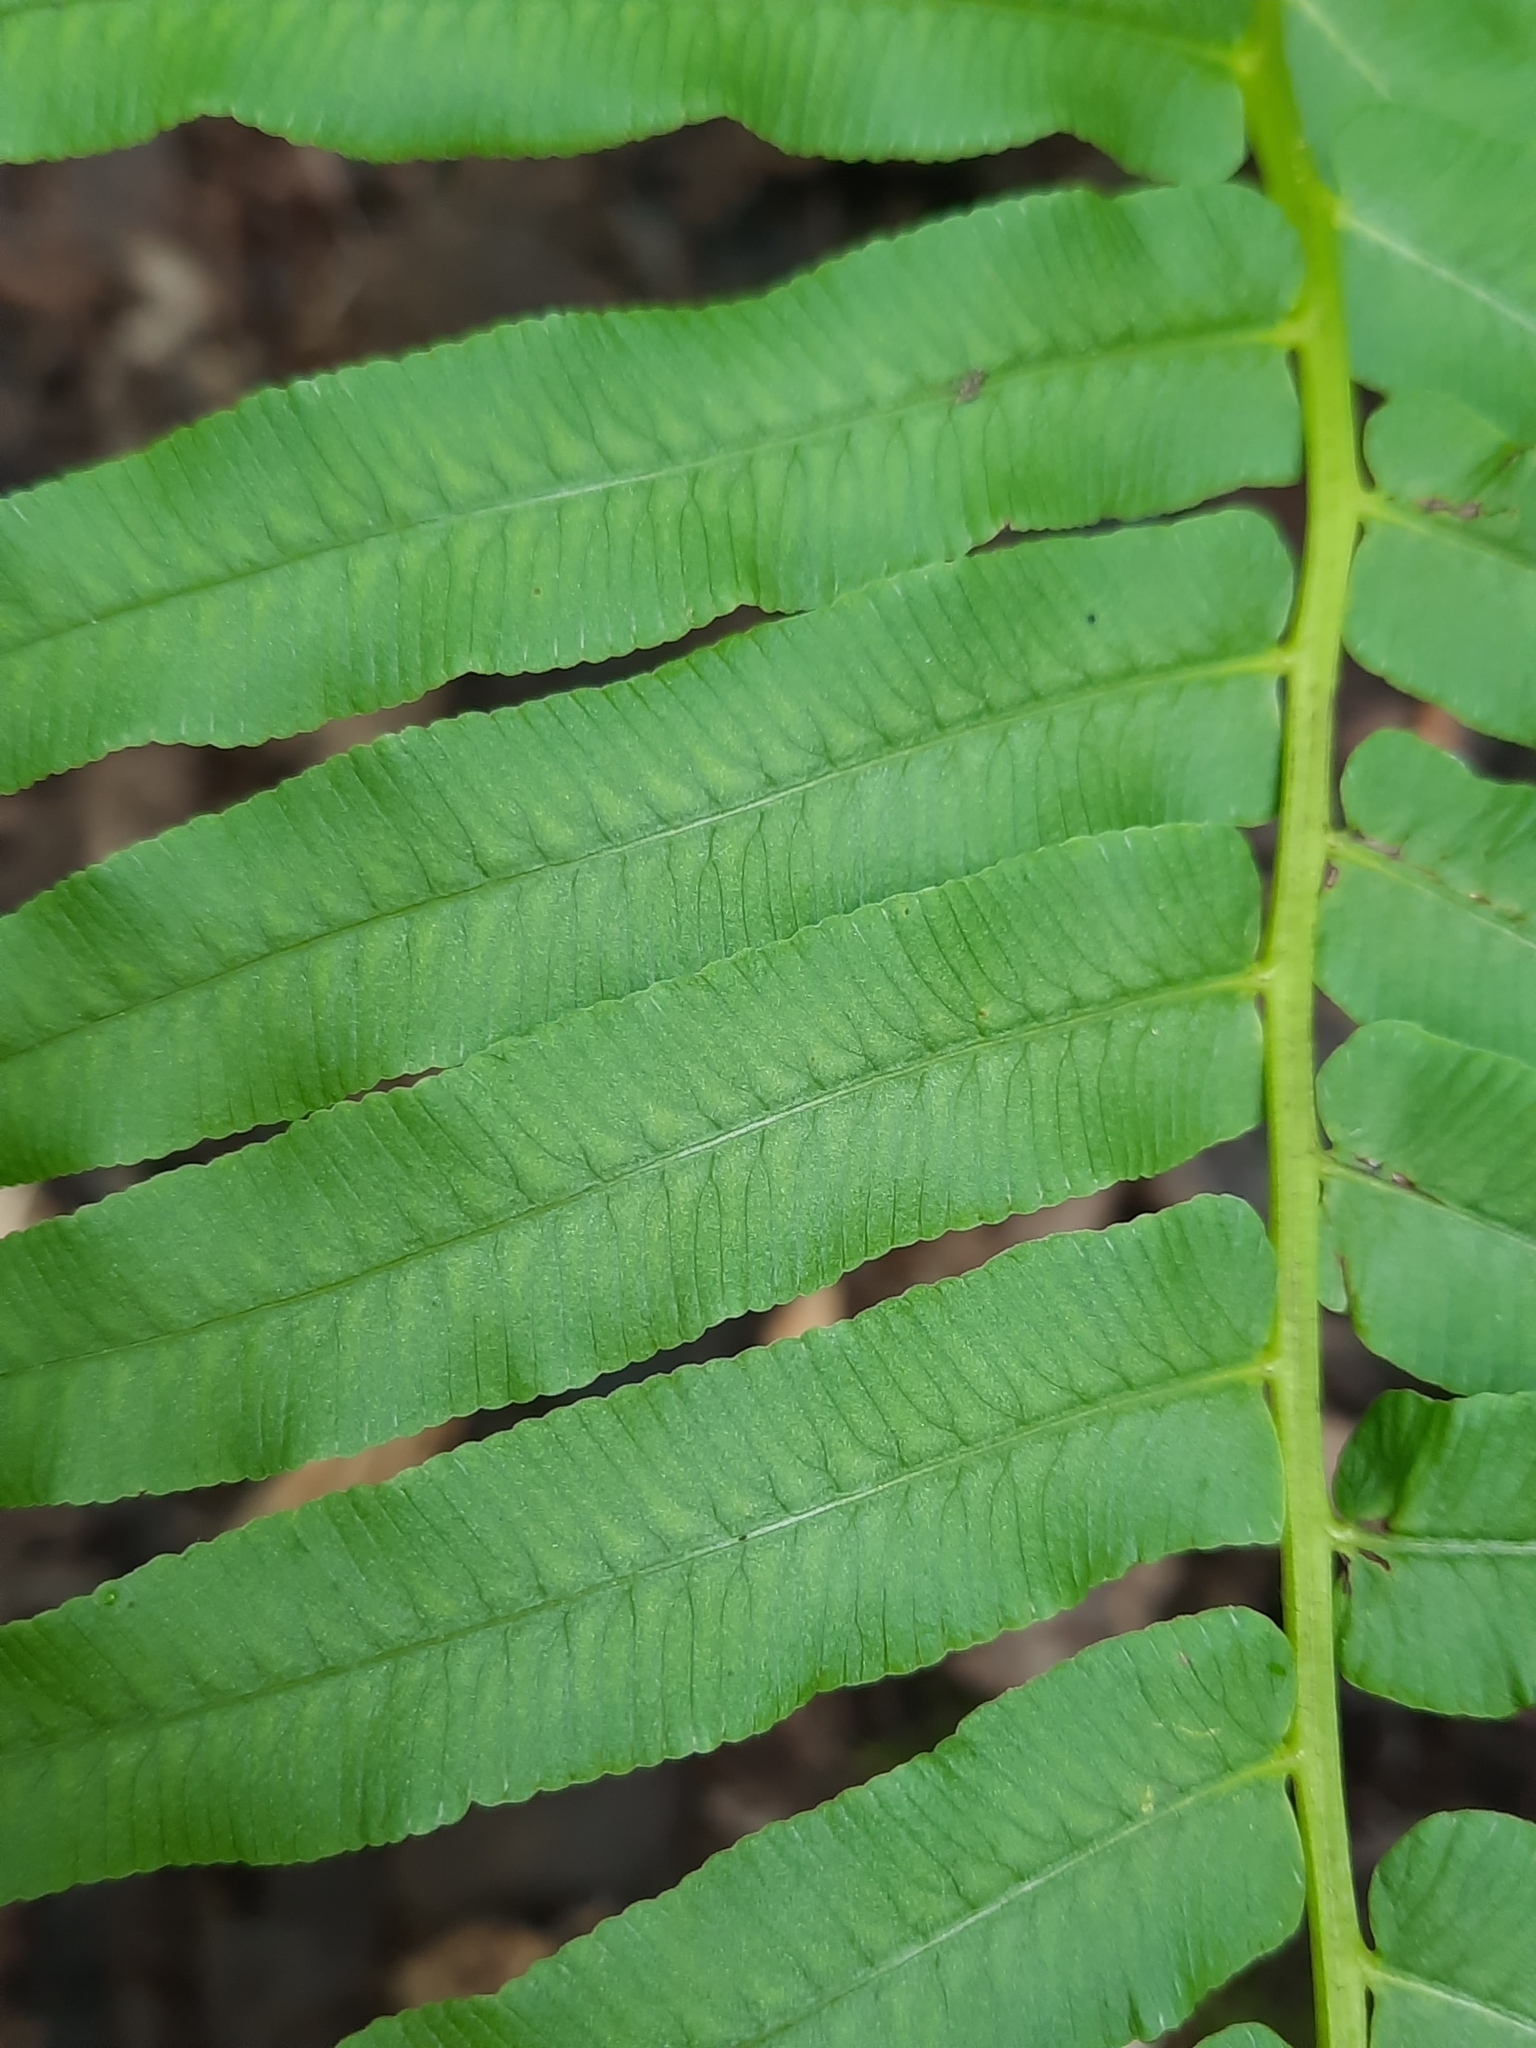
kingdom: Plantae
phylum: Tracheophyta
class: Polypodiopsida
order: Polypodiales
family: Diplaziopsidaceae
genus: Homalosorus
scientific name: Homalosorus pycnocarpos
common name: Glade fern
